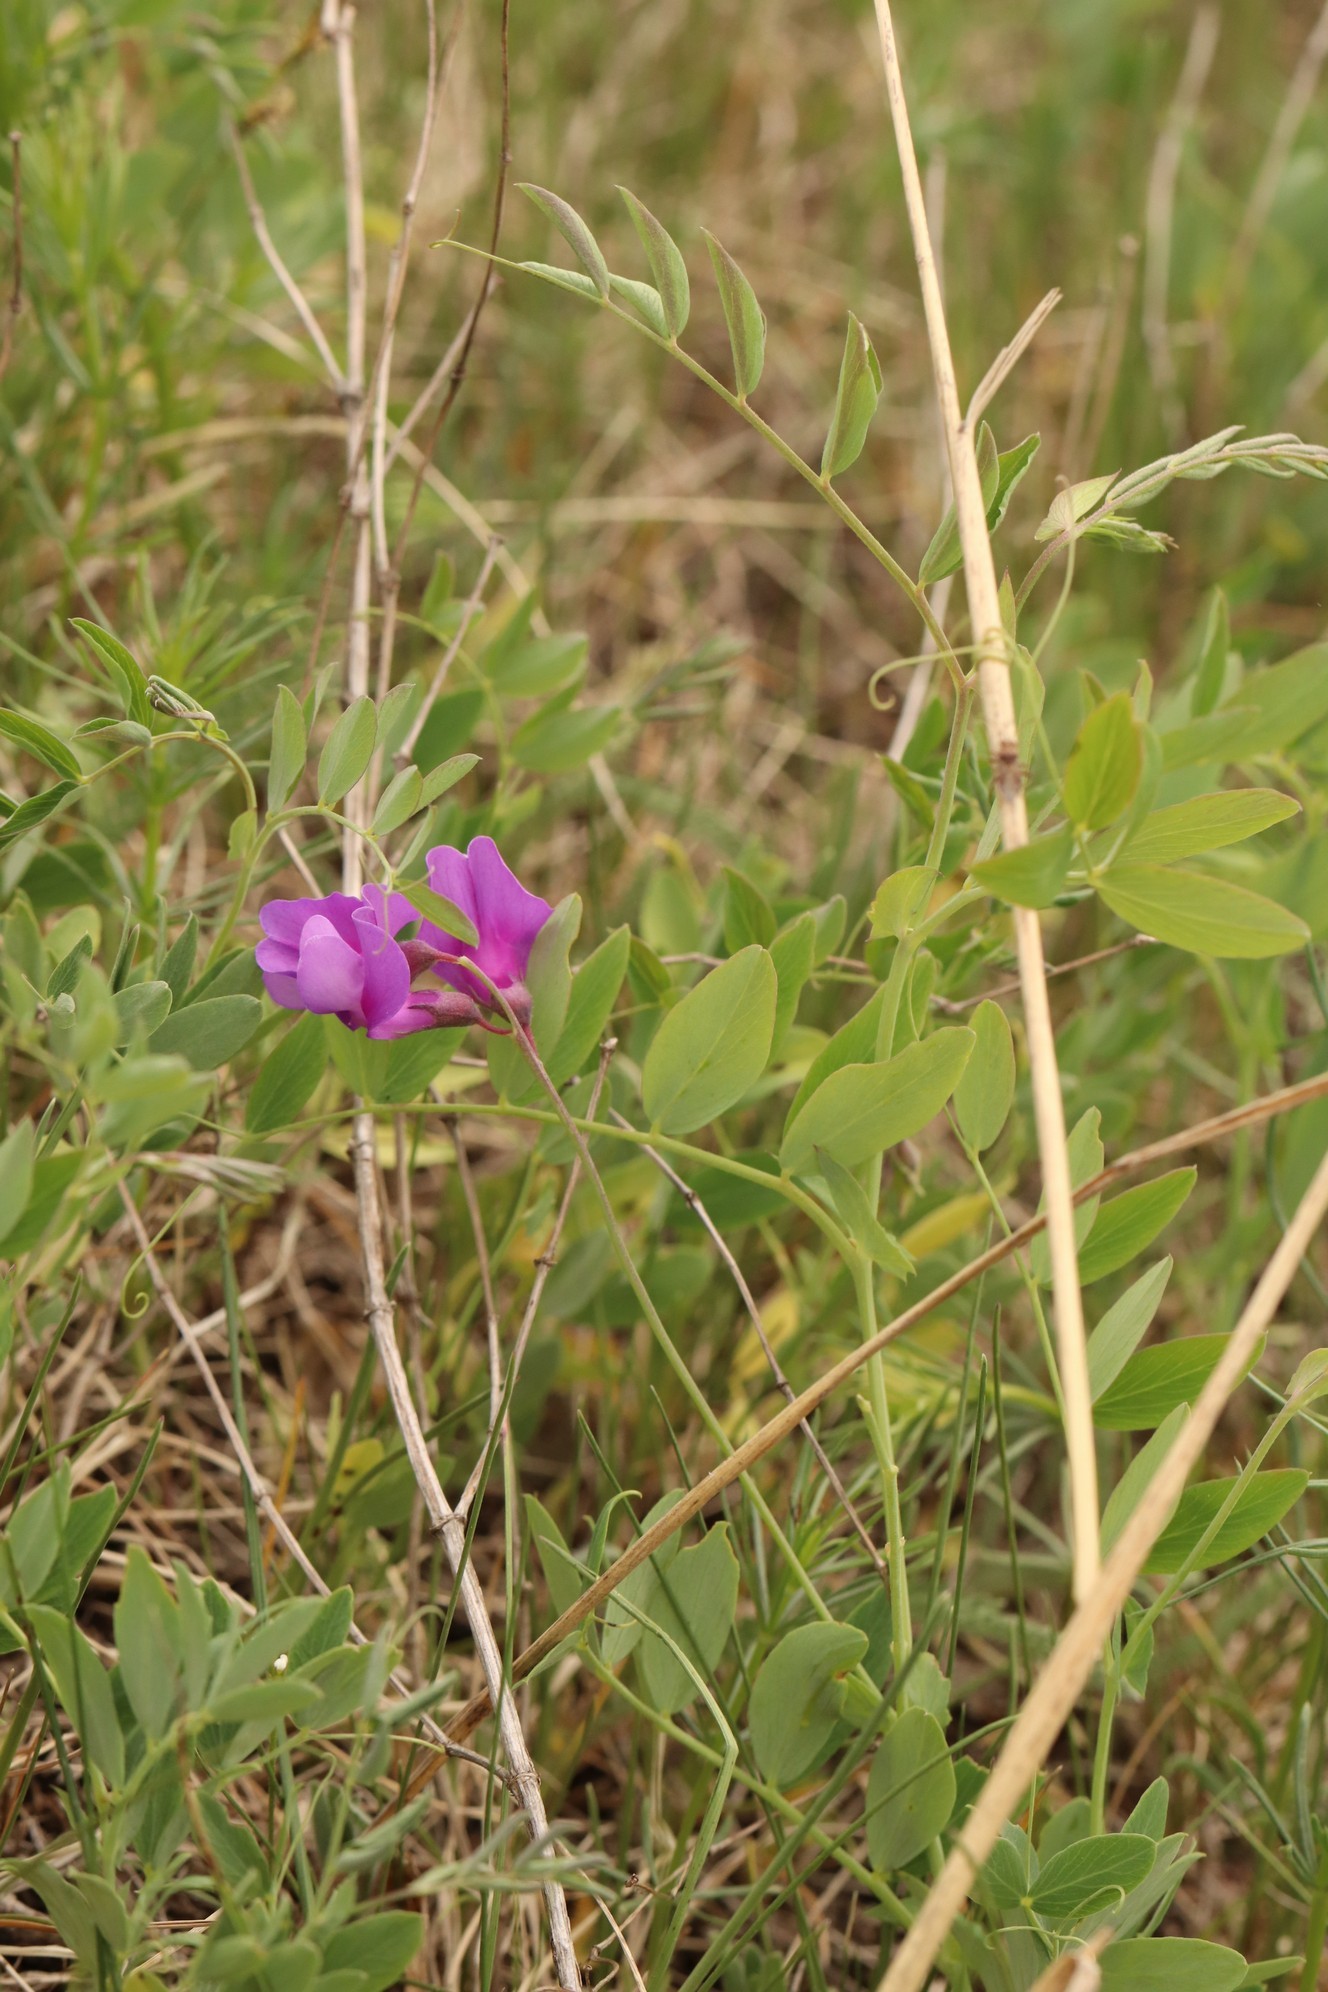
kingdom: Plantae
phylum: Tracheophyta
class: Magnoliopsida
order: Fabales
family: Fabaceae
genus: Lathyrus
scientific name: Lathyrus humilis
